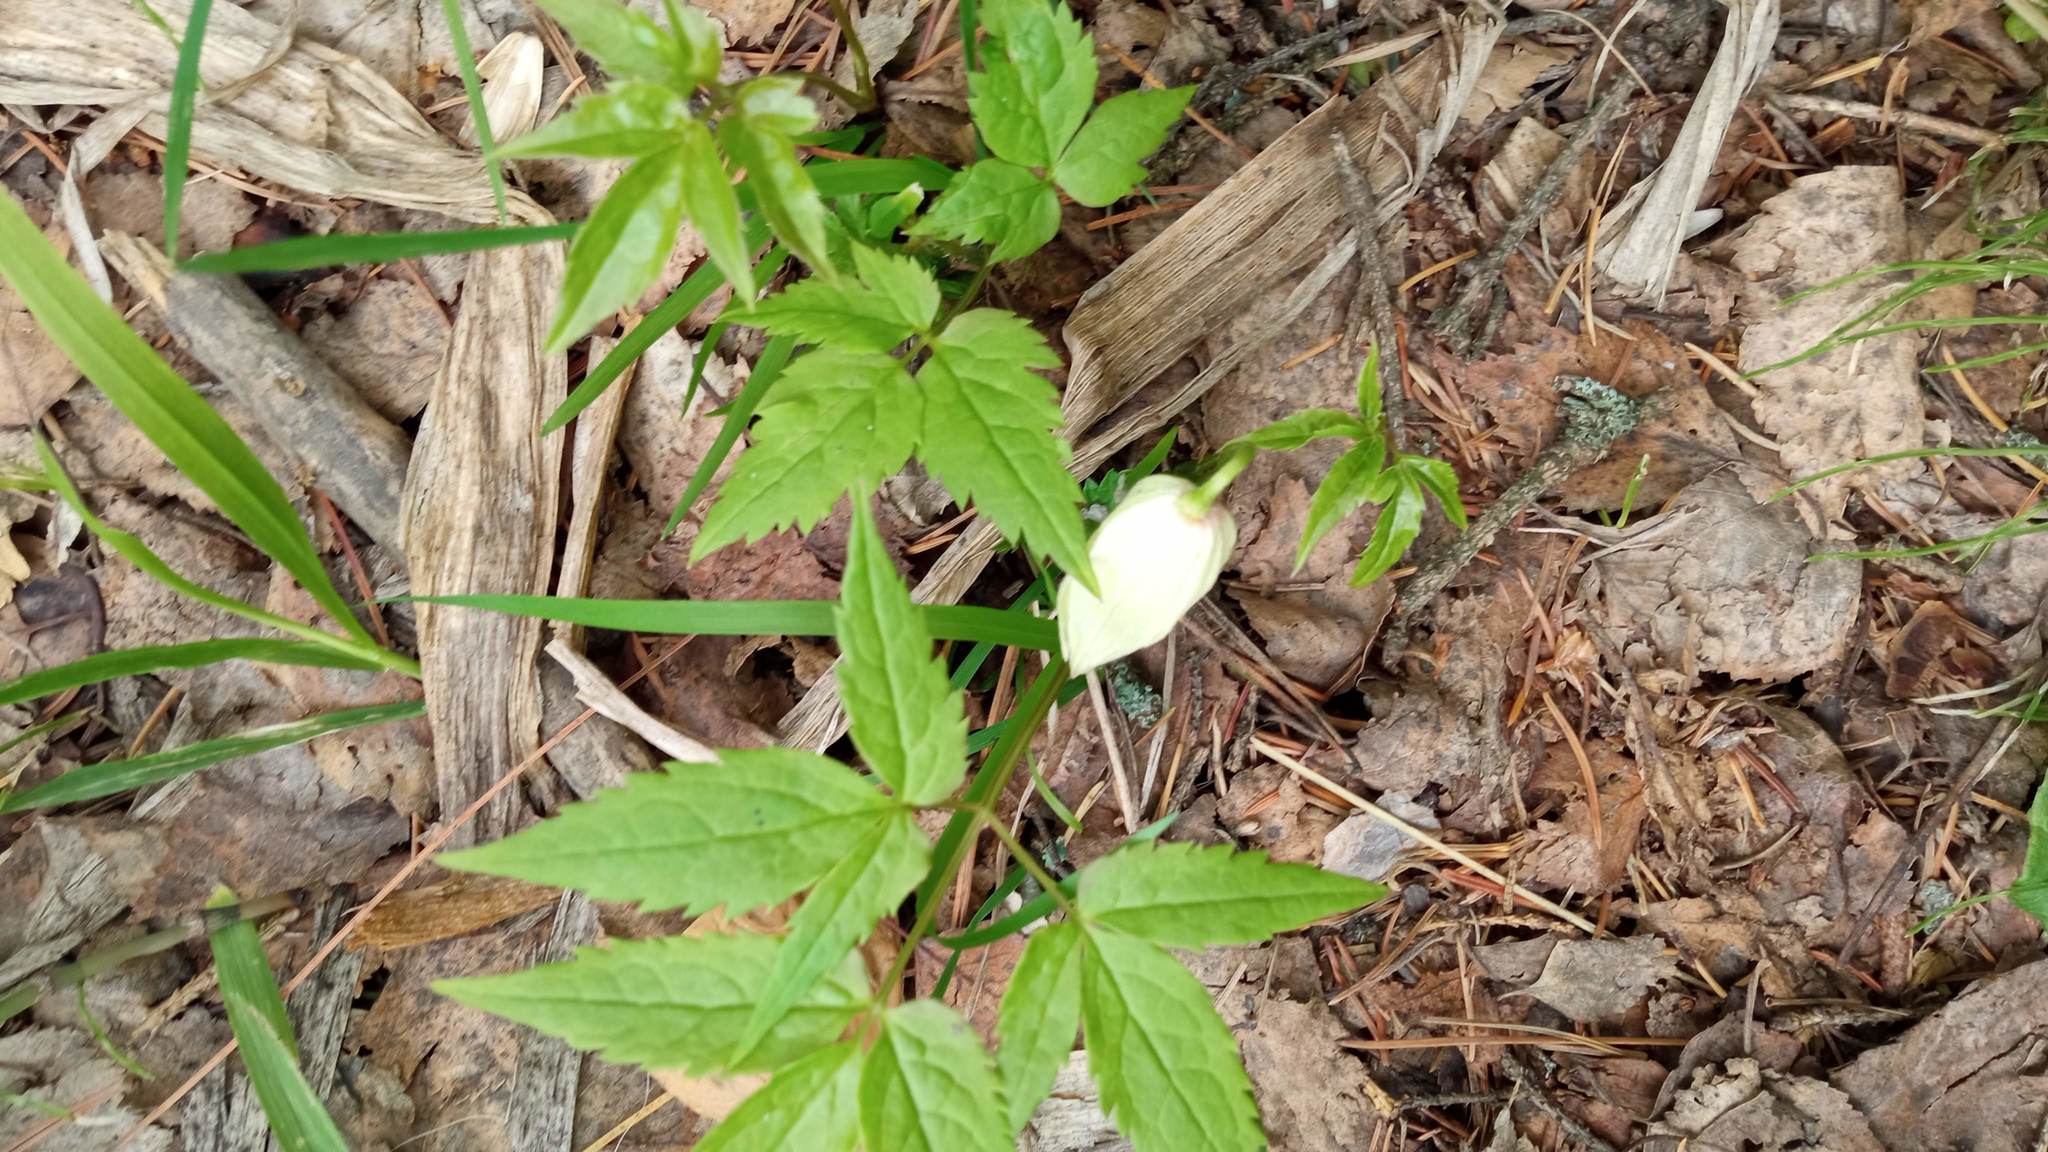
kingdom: Plantae
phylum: Tracheophyta
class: Magnoliopsida
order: Ranunculales
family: Ranunculaceae
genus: Clematis
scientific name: Clematis sibirica
